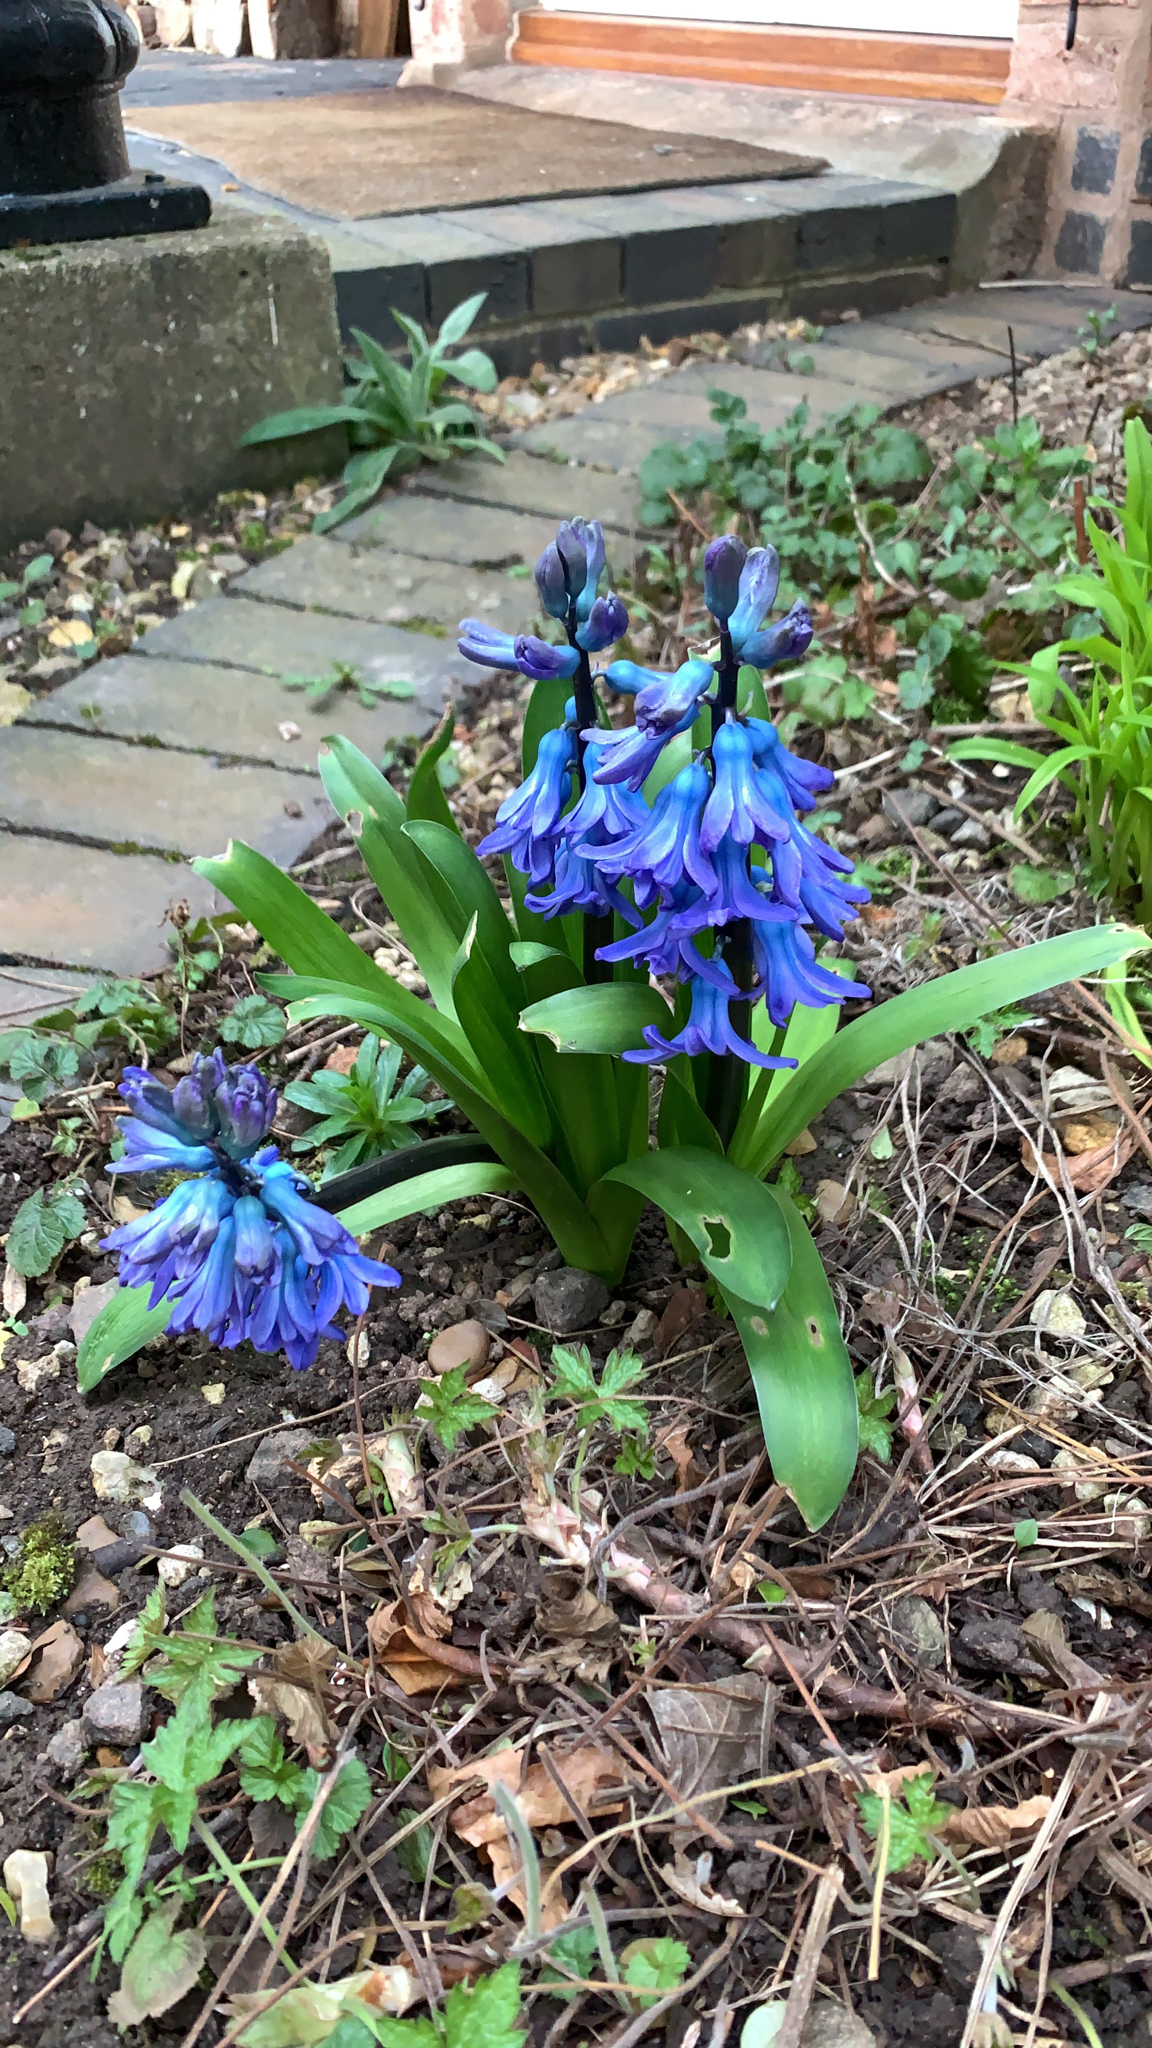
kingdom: Plantae
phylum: Tracheophyta
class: Liliopsida
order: Asparagales
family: Asparagaceae
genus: Hyacinthus
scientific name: Hyacinthus orientalis
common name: Hyacinth
